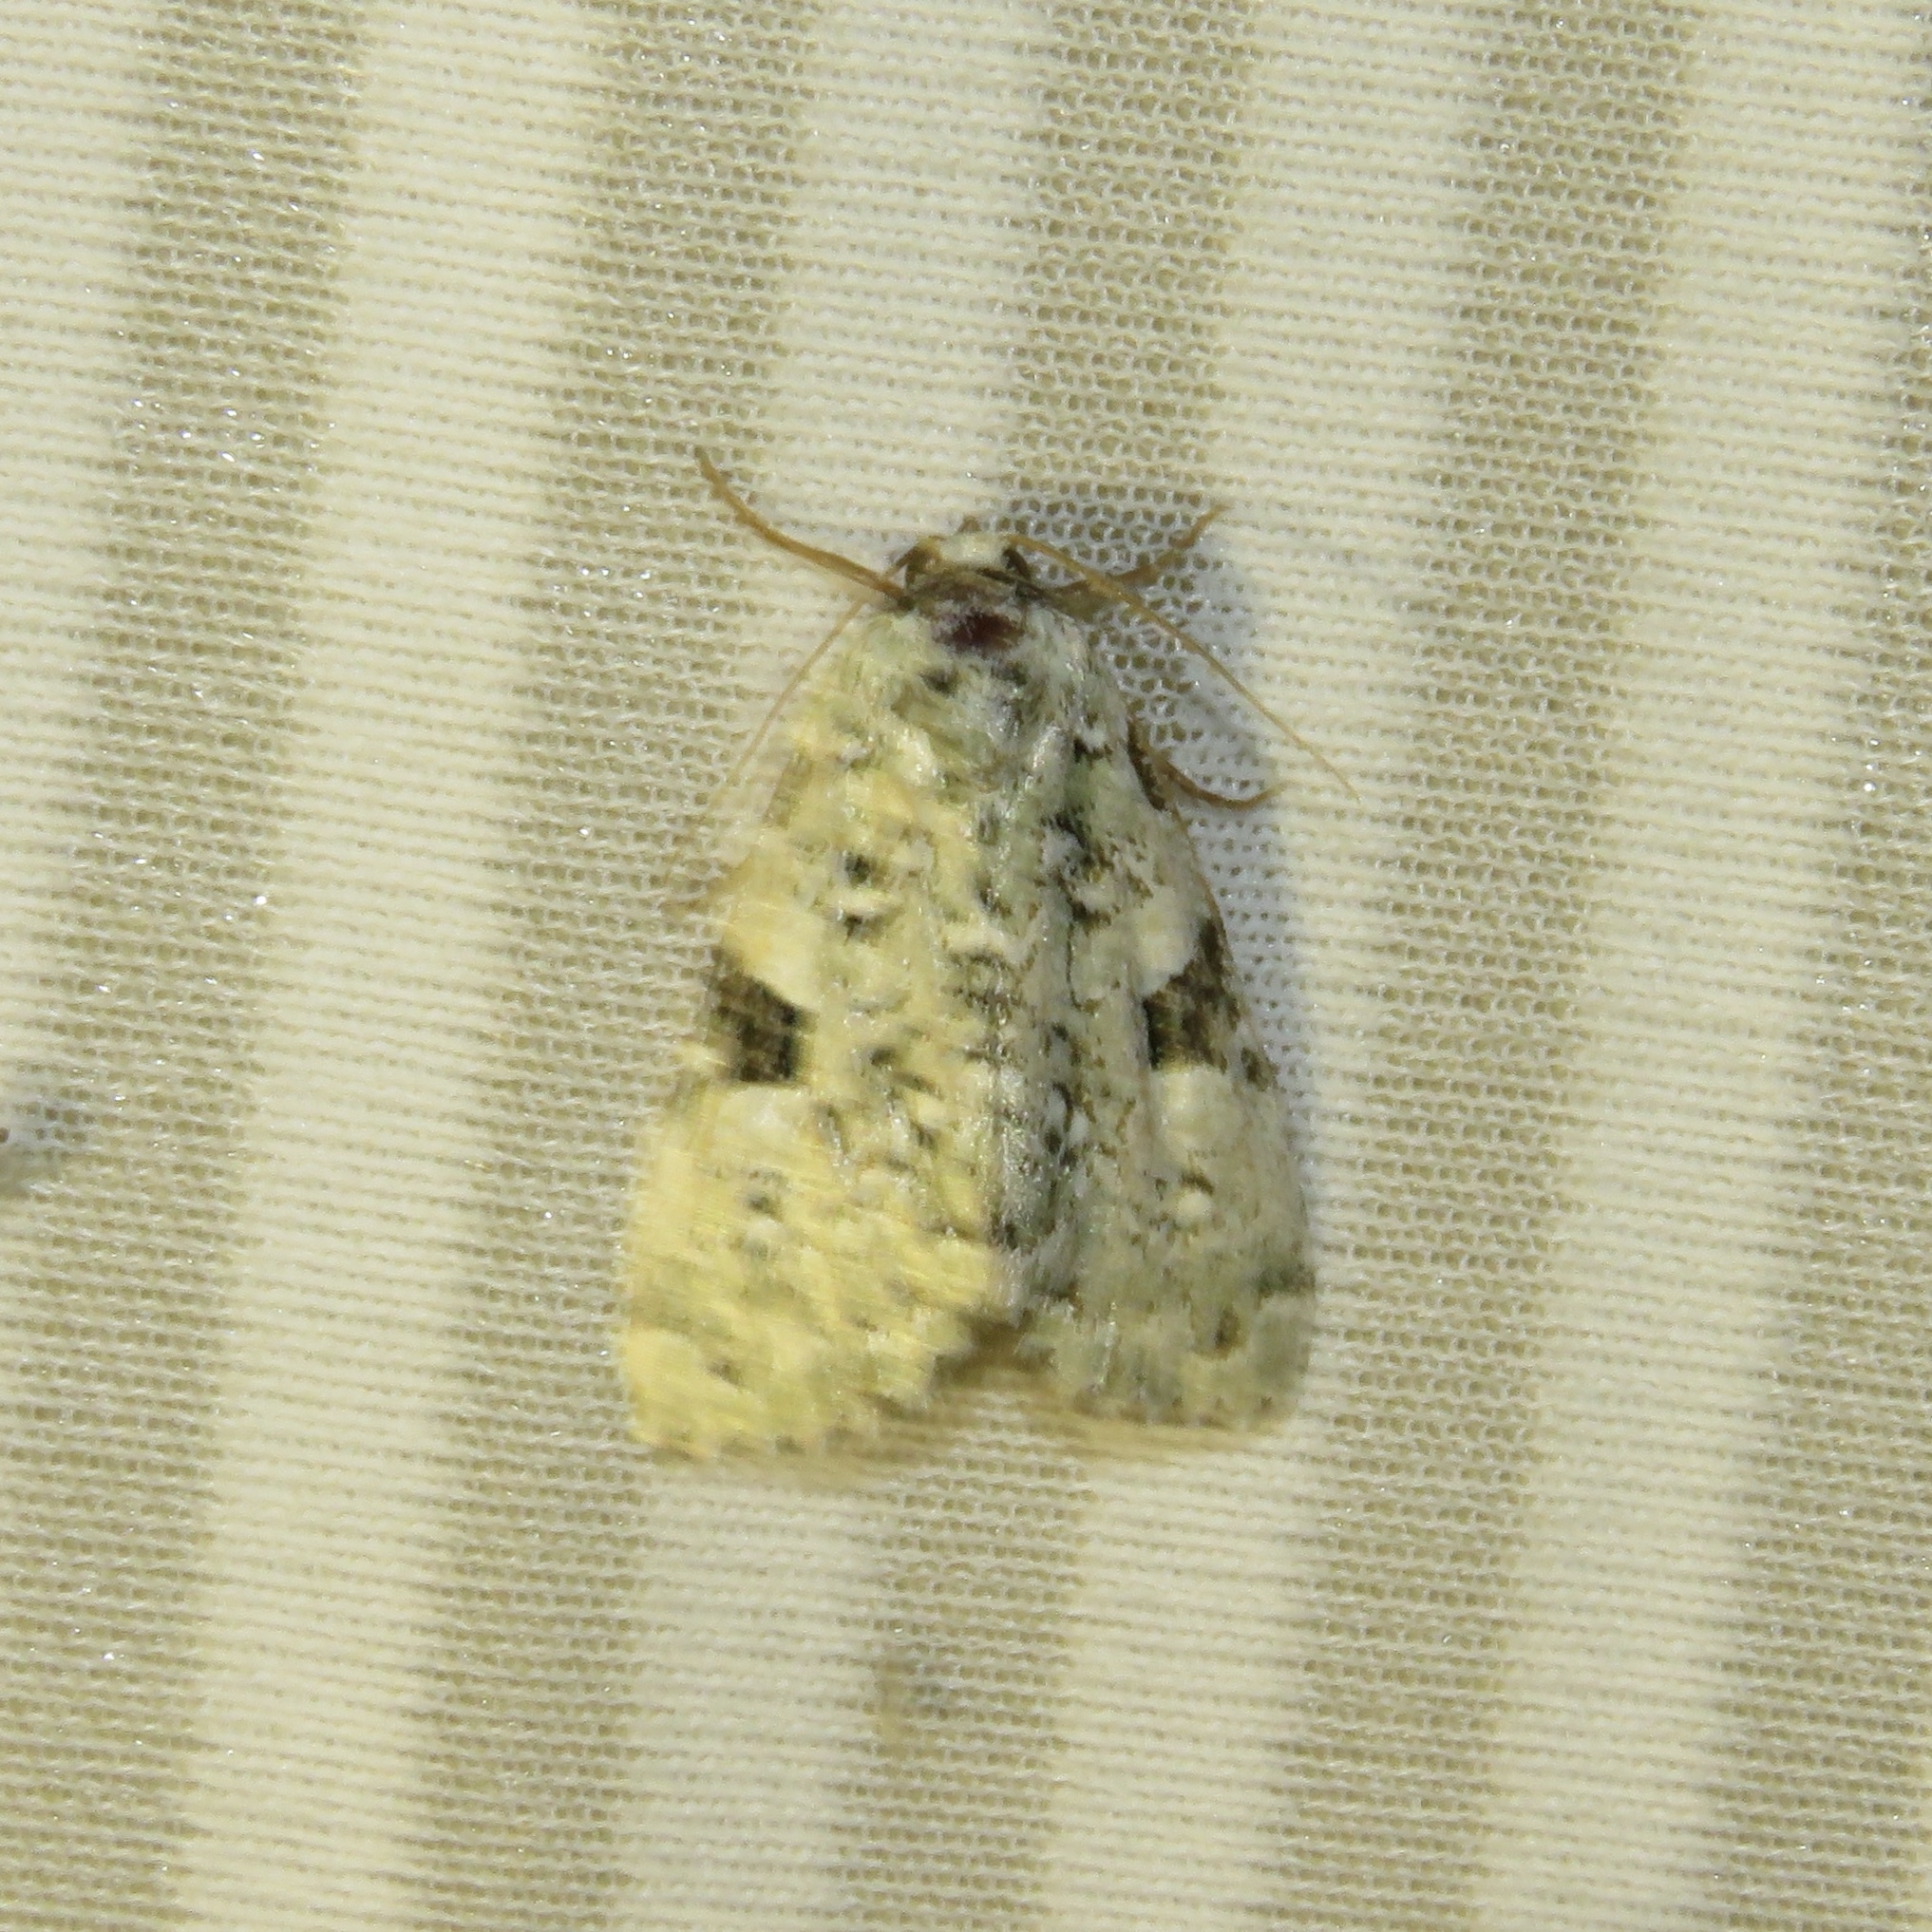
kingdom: Animalia
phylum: Arthropoda
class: Insecta
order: Lepidoptera
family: Noctuidae
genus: Leuconycta
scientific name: Leuconycta diphteroides
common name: Green leuconycta moth
